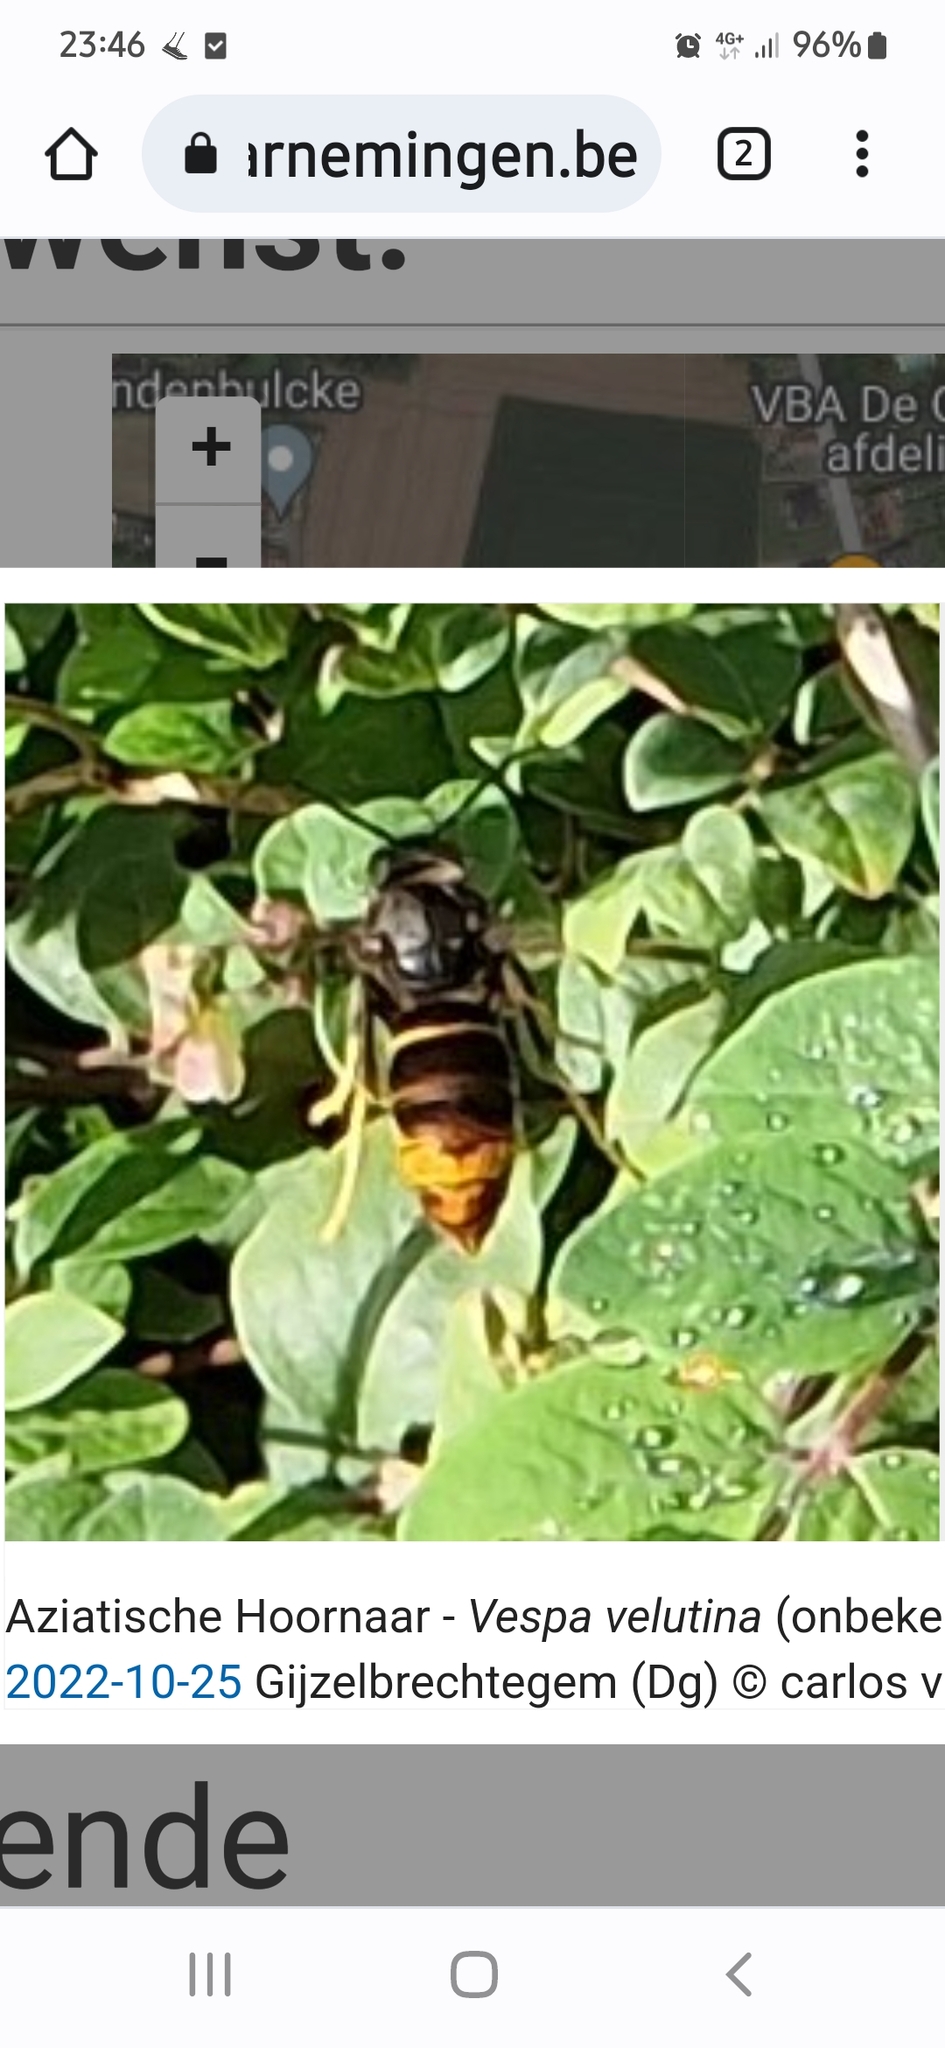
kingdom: Animalia
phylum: Arthropoda
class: Insecta
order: Hymenoptera
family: Vespidae
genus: Vespa
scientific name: Vespa velutina
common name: Asian hornet
